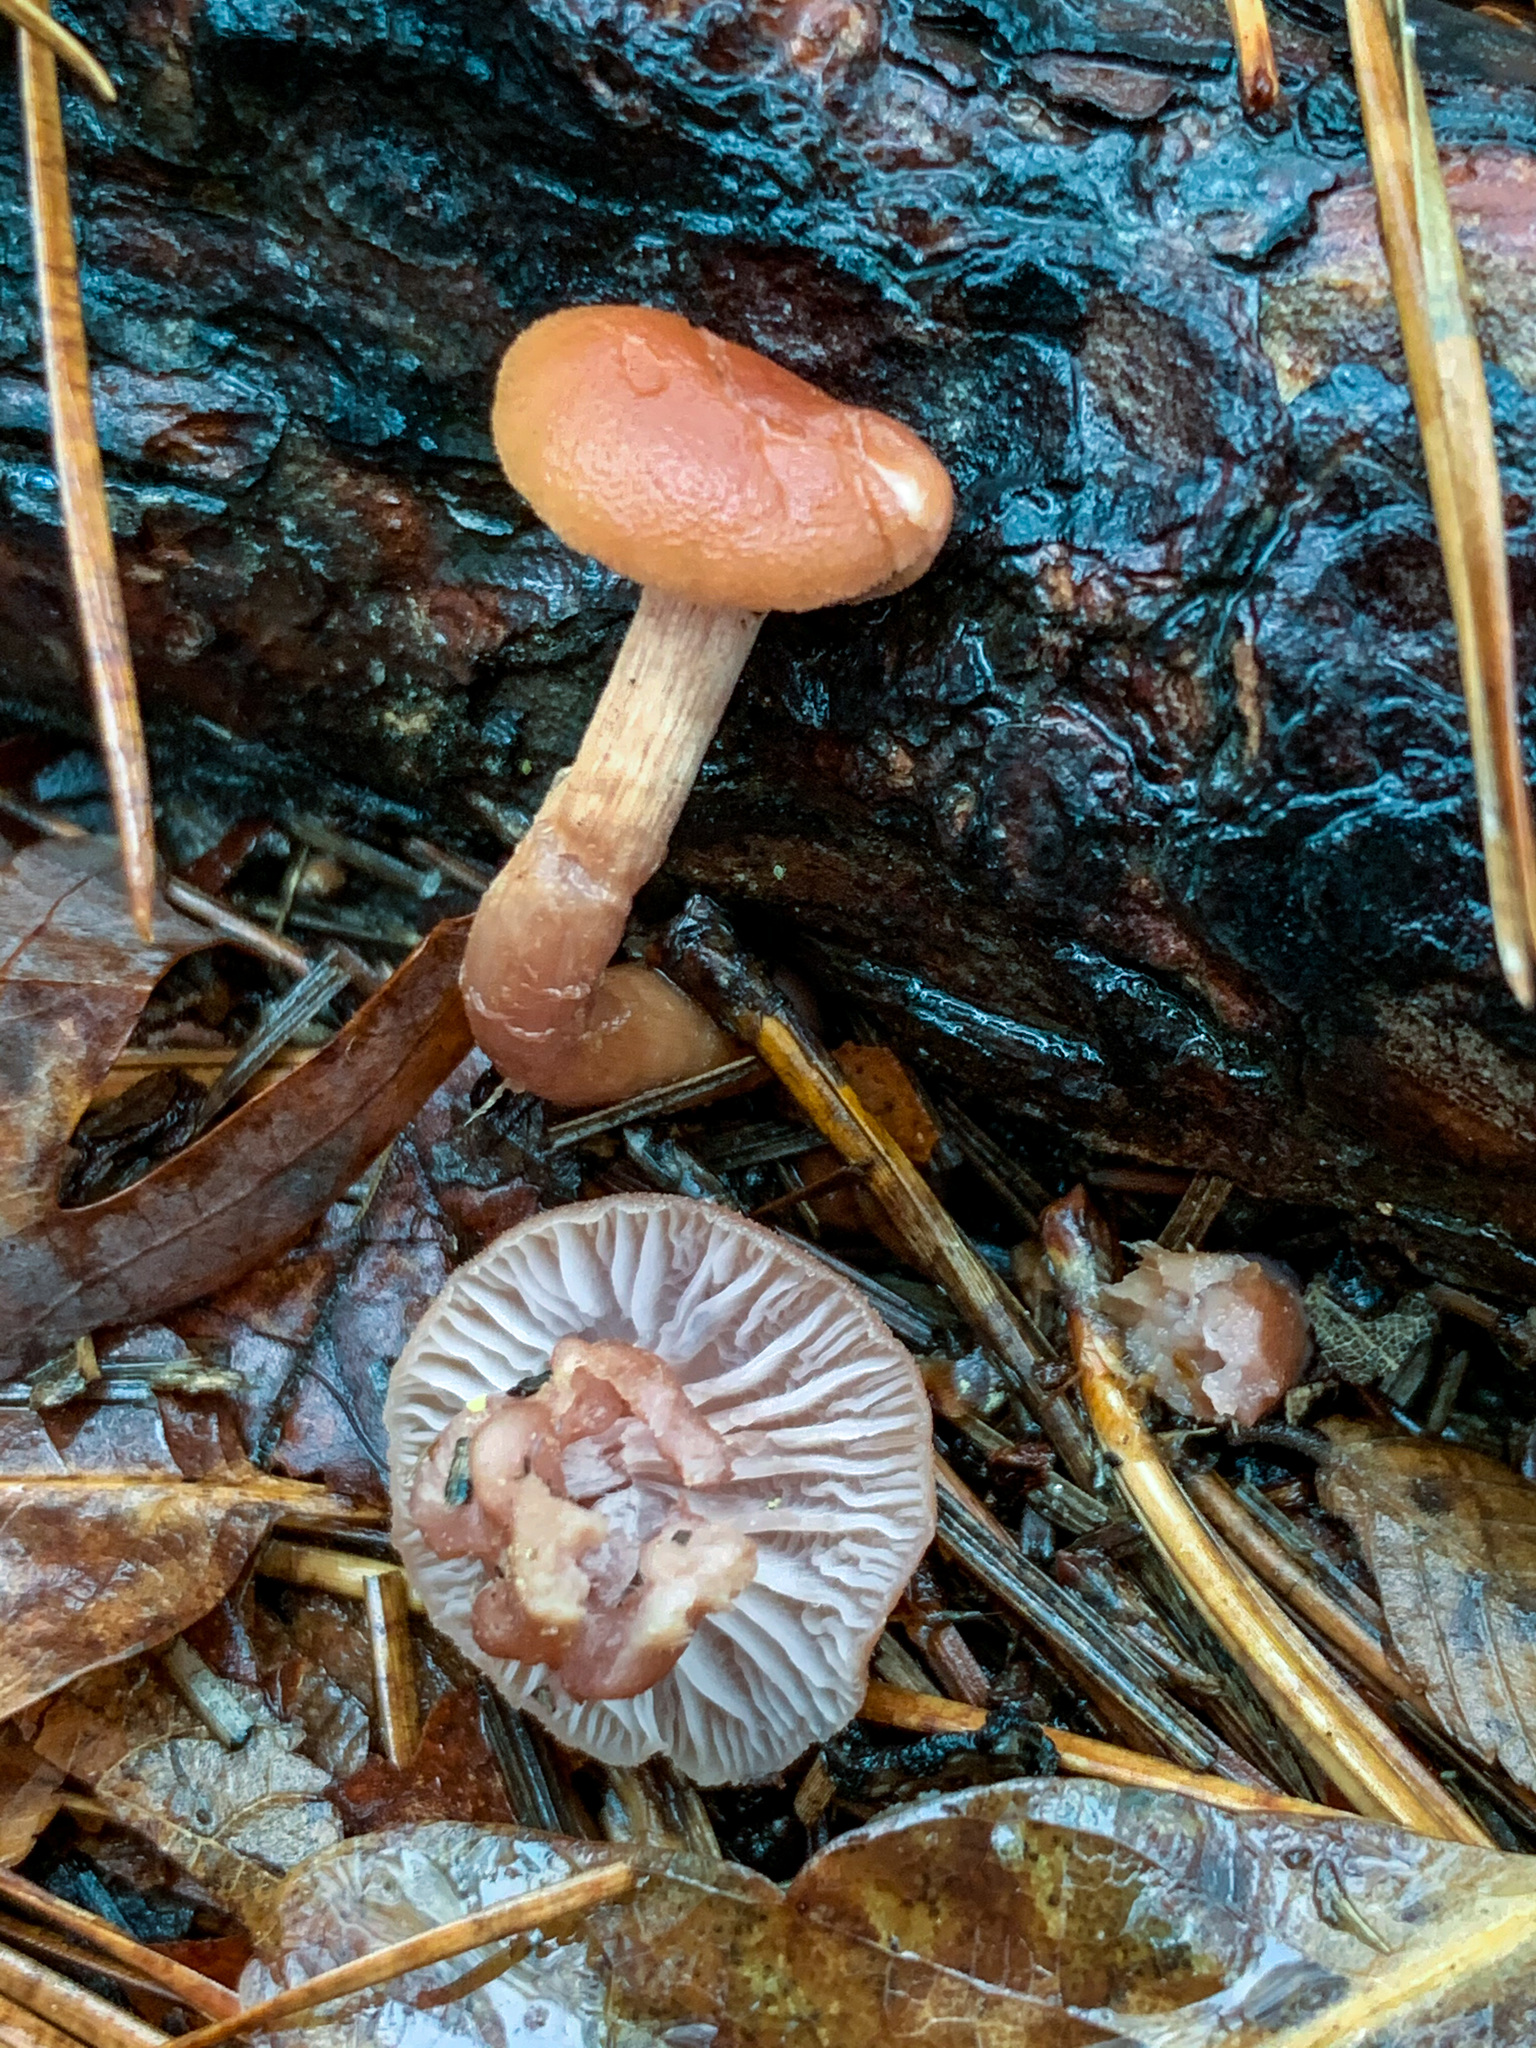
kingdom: Fungi
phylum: Basidiomycota
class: Agaricomycetes
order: Agaricales
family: Hydnangiaceae
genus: Laccaria
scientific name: Laccaria laccata
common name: Deceiver
